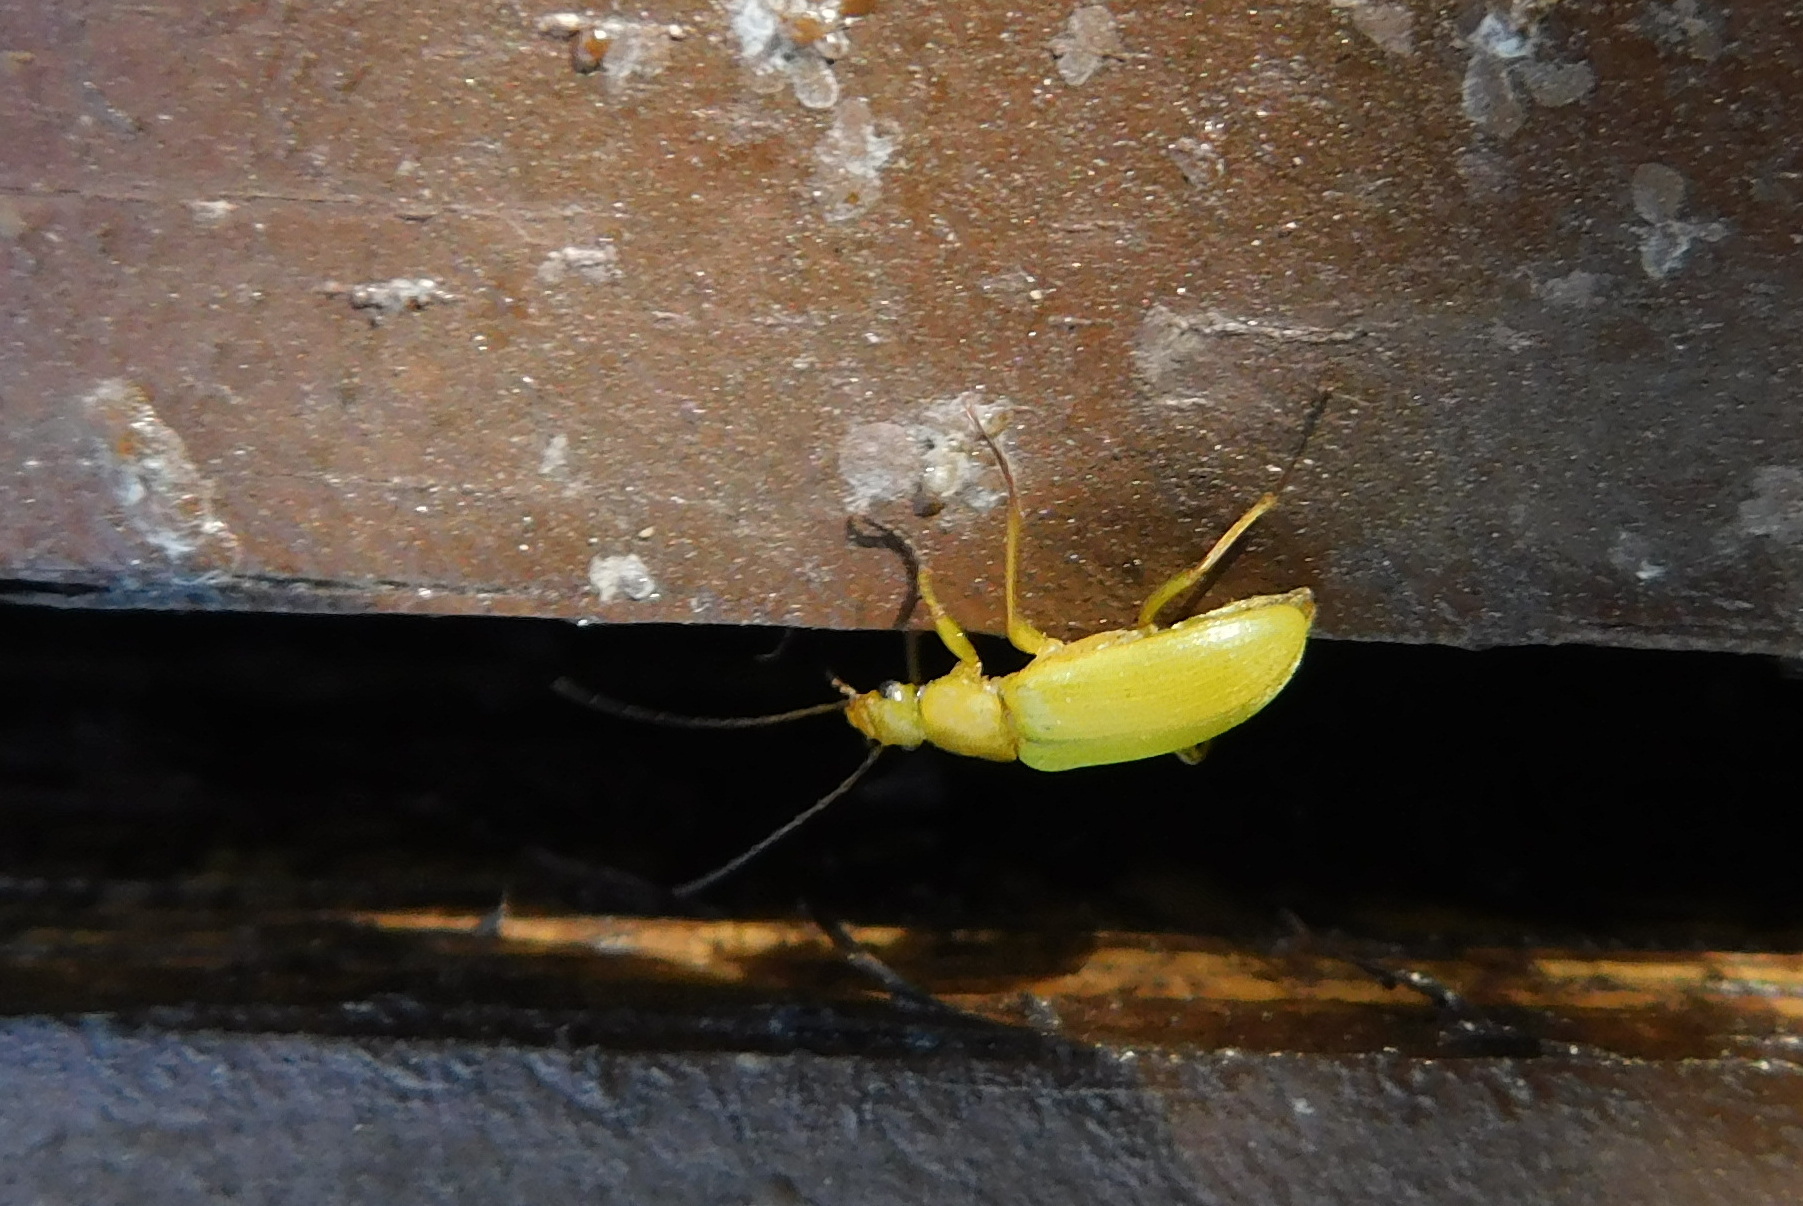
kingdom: Animalia
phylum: Arthropoda
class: Insecta
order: Coleoptera
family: Tenebrionidae
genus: Cteniopus
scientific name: Cteniopus sulphureus
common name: Sulphur beetle
